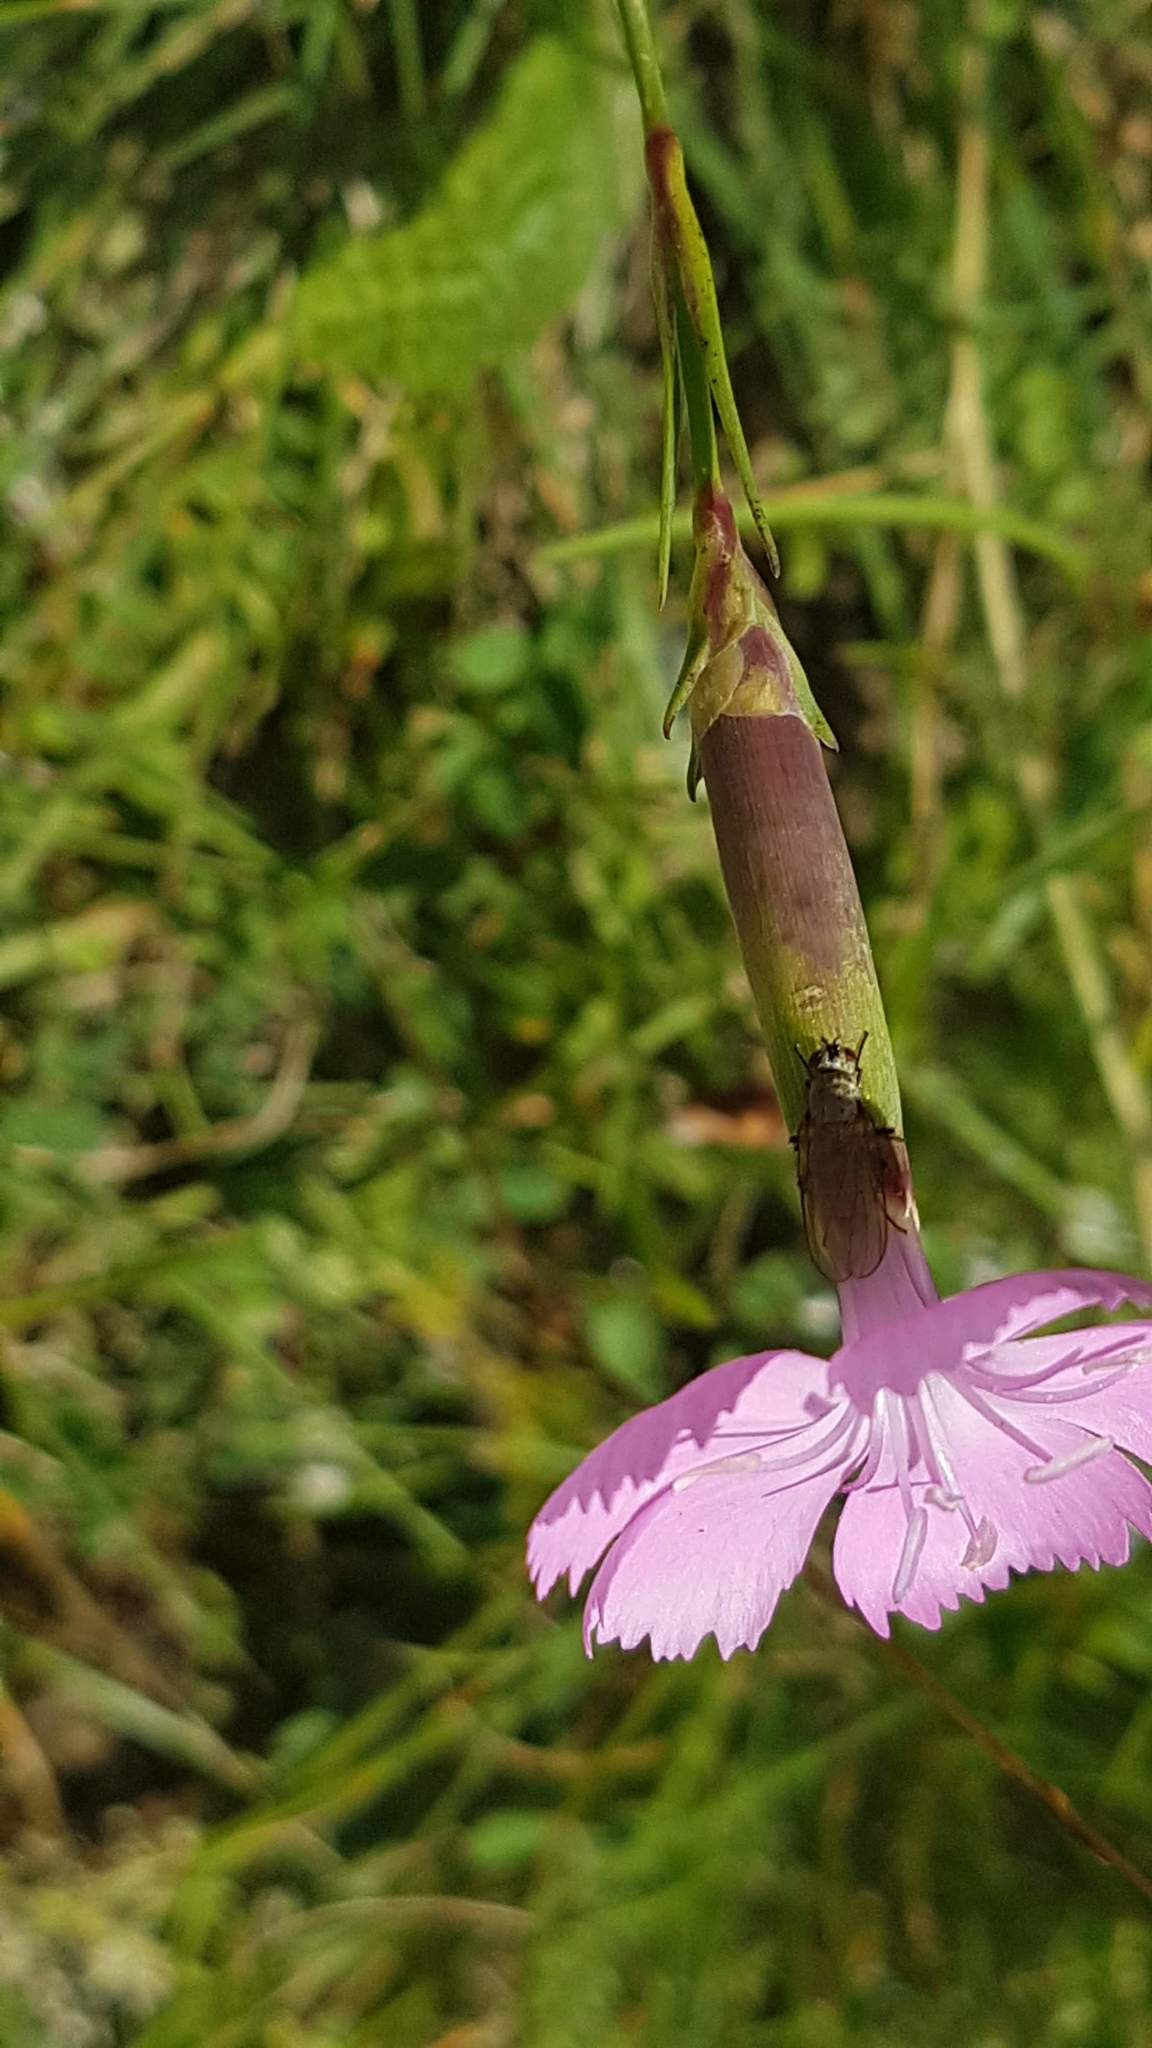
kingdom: Plantae
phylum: Tracheophyta
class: Magnoliopsida
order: Caryophyllales
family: Caryophyllaceae
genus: Dianthus
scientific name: Dianthus sylvestris
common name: Wood pink
